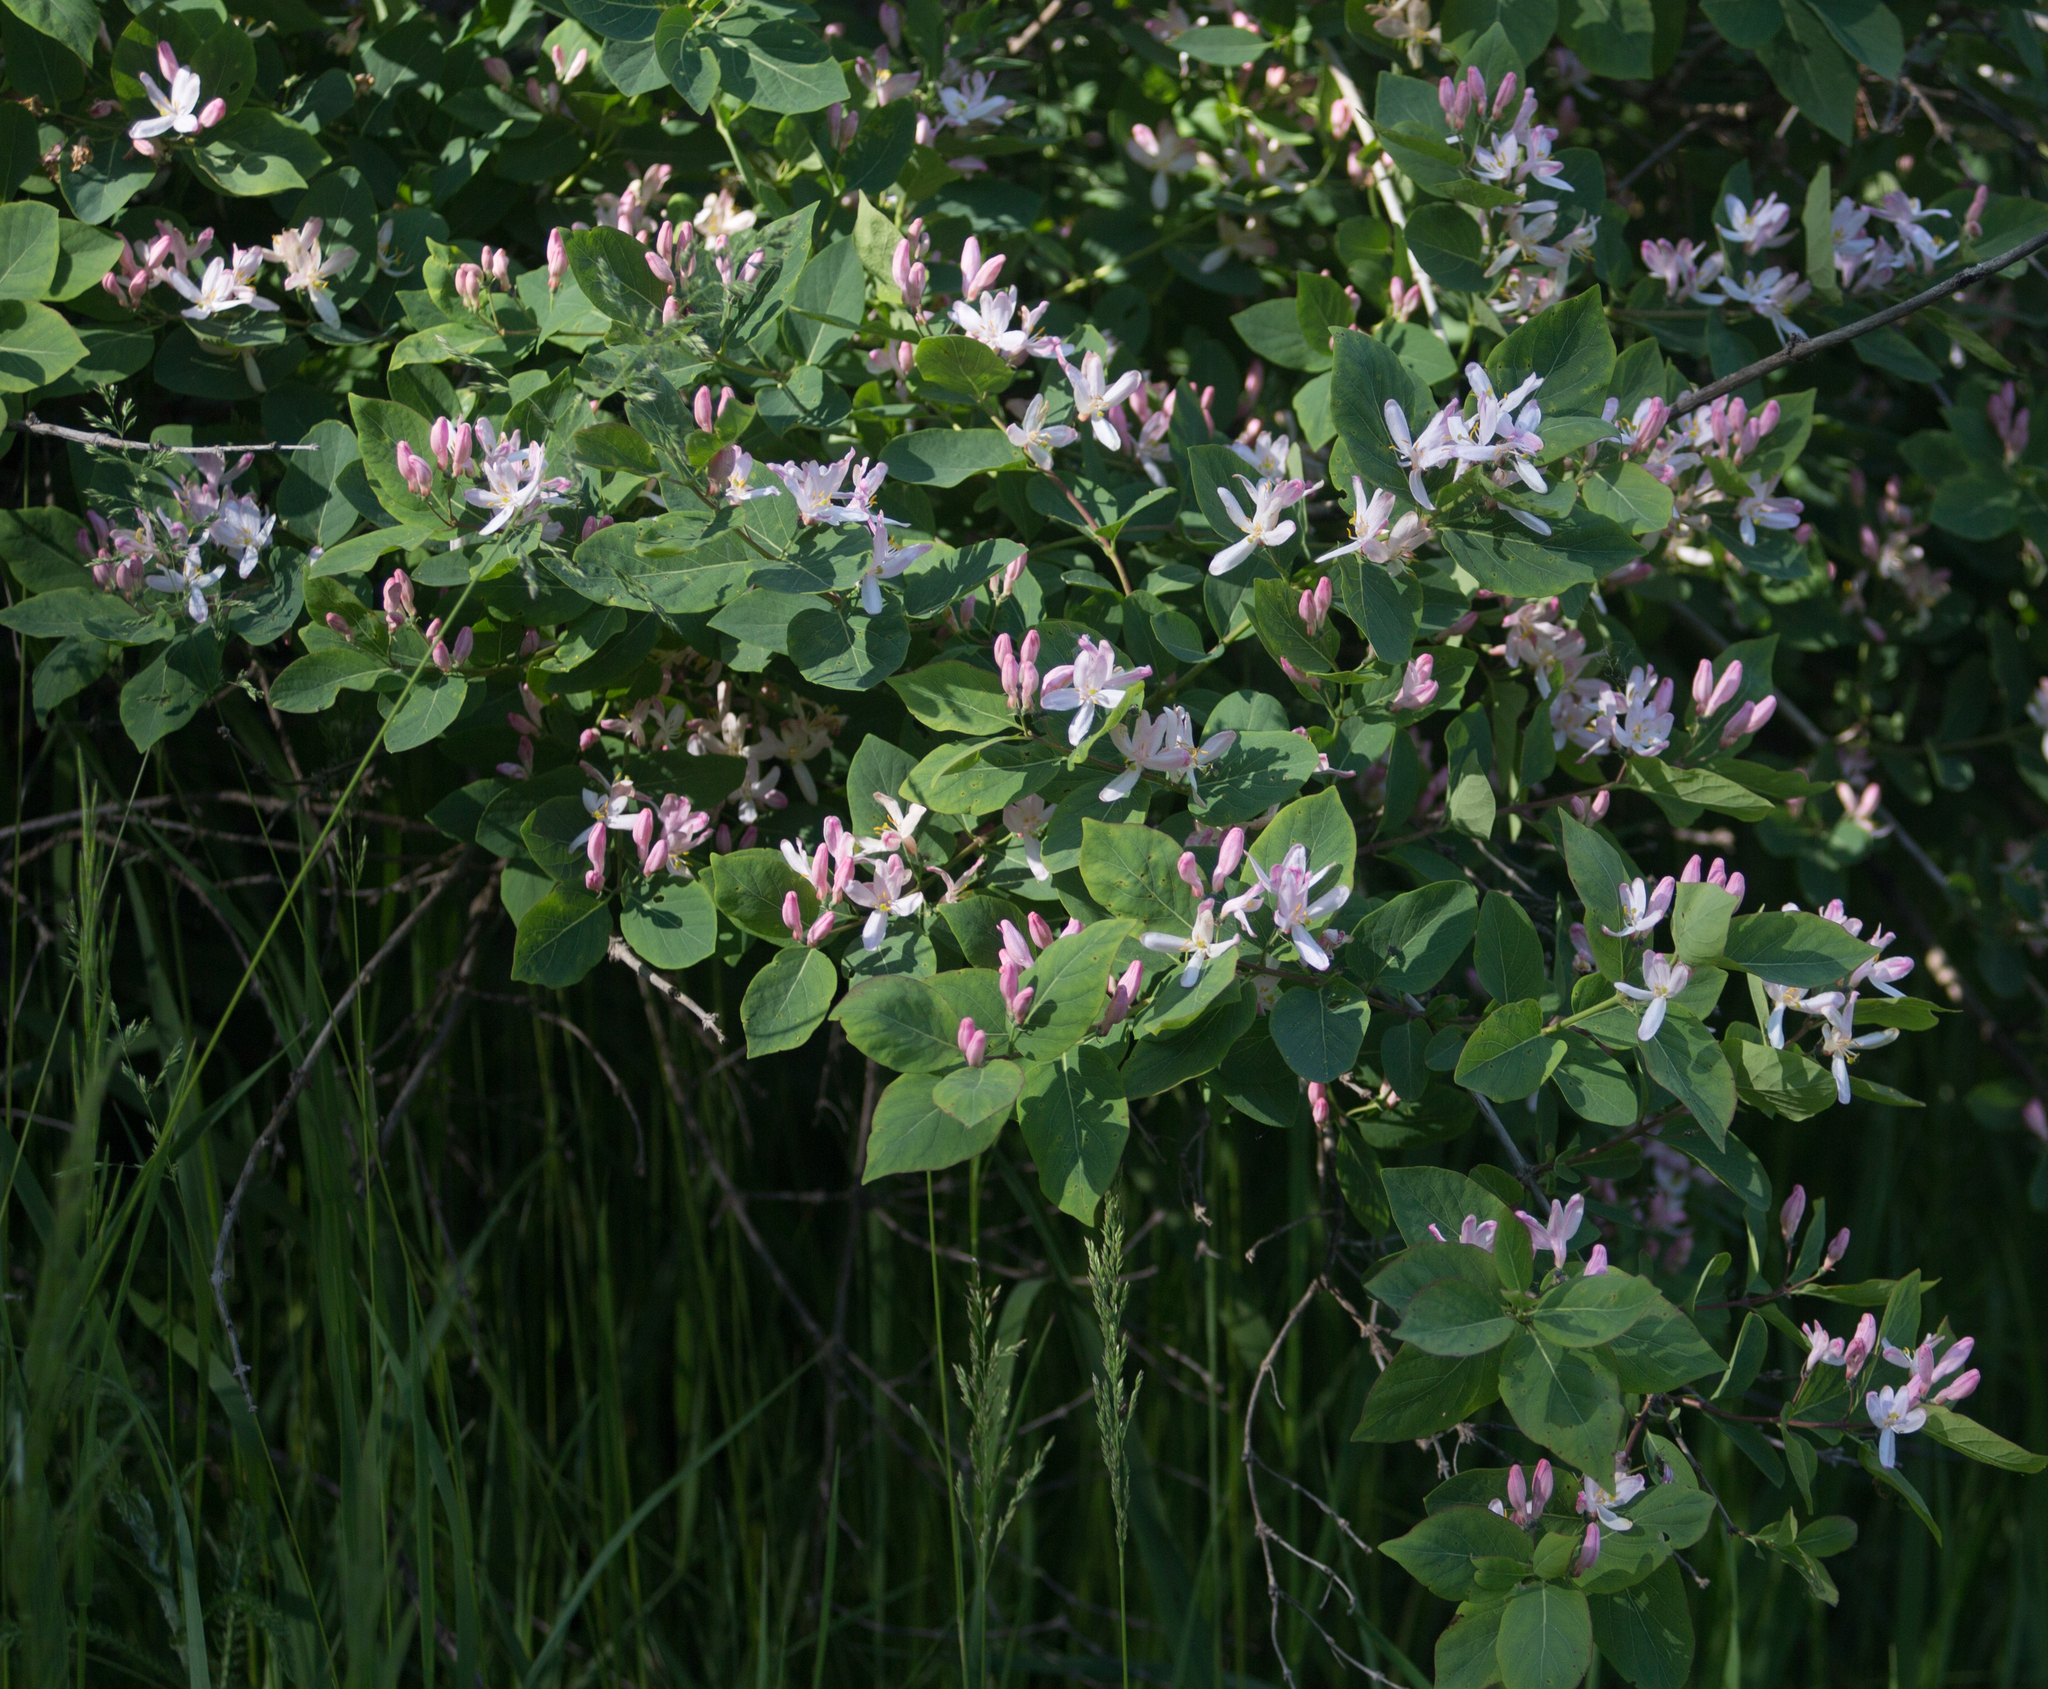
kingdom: Plantae
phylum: Tracheophyta
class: Magnoliopsida
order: Dipsacales
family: Caprifoliaceae
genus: Lonicera
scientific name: Lonicera tatarica
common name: Tatarian honeysuckle
